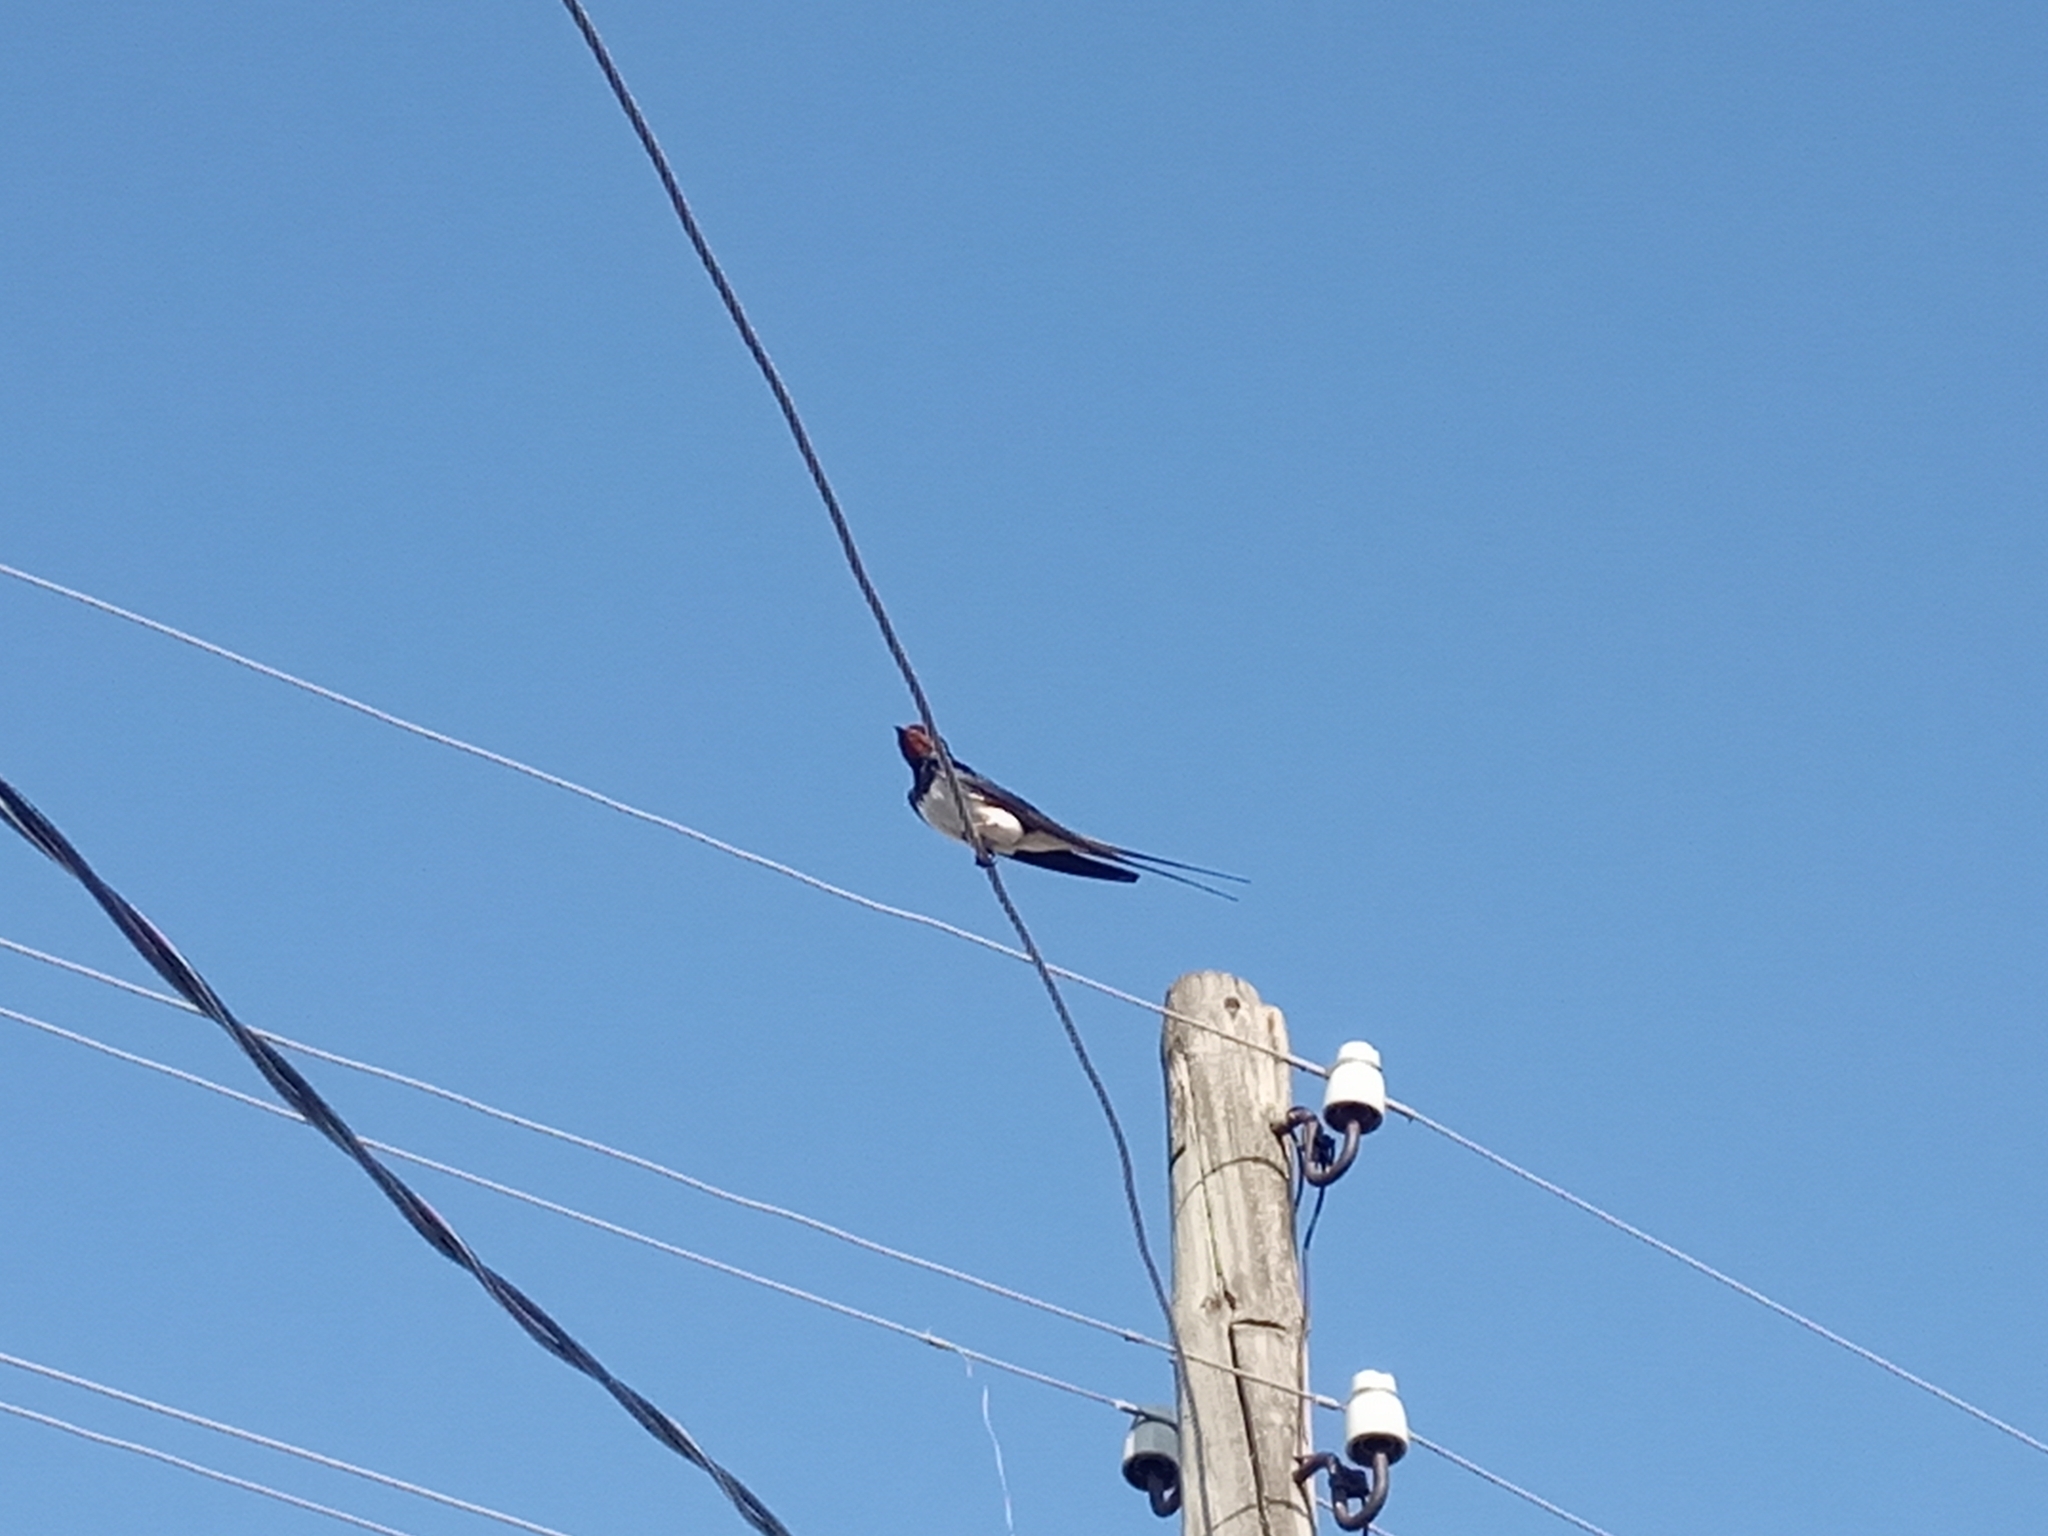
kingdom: Animalia
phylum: Chordata
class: Aves
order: Passeriformes
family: Hirundinidae
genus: Hirundo
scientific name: Hirundo rustica
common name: Barn swallow
